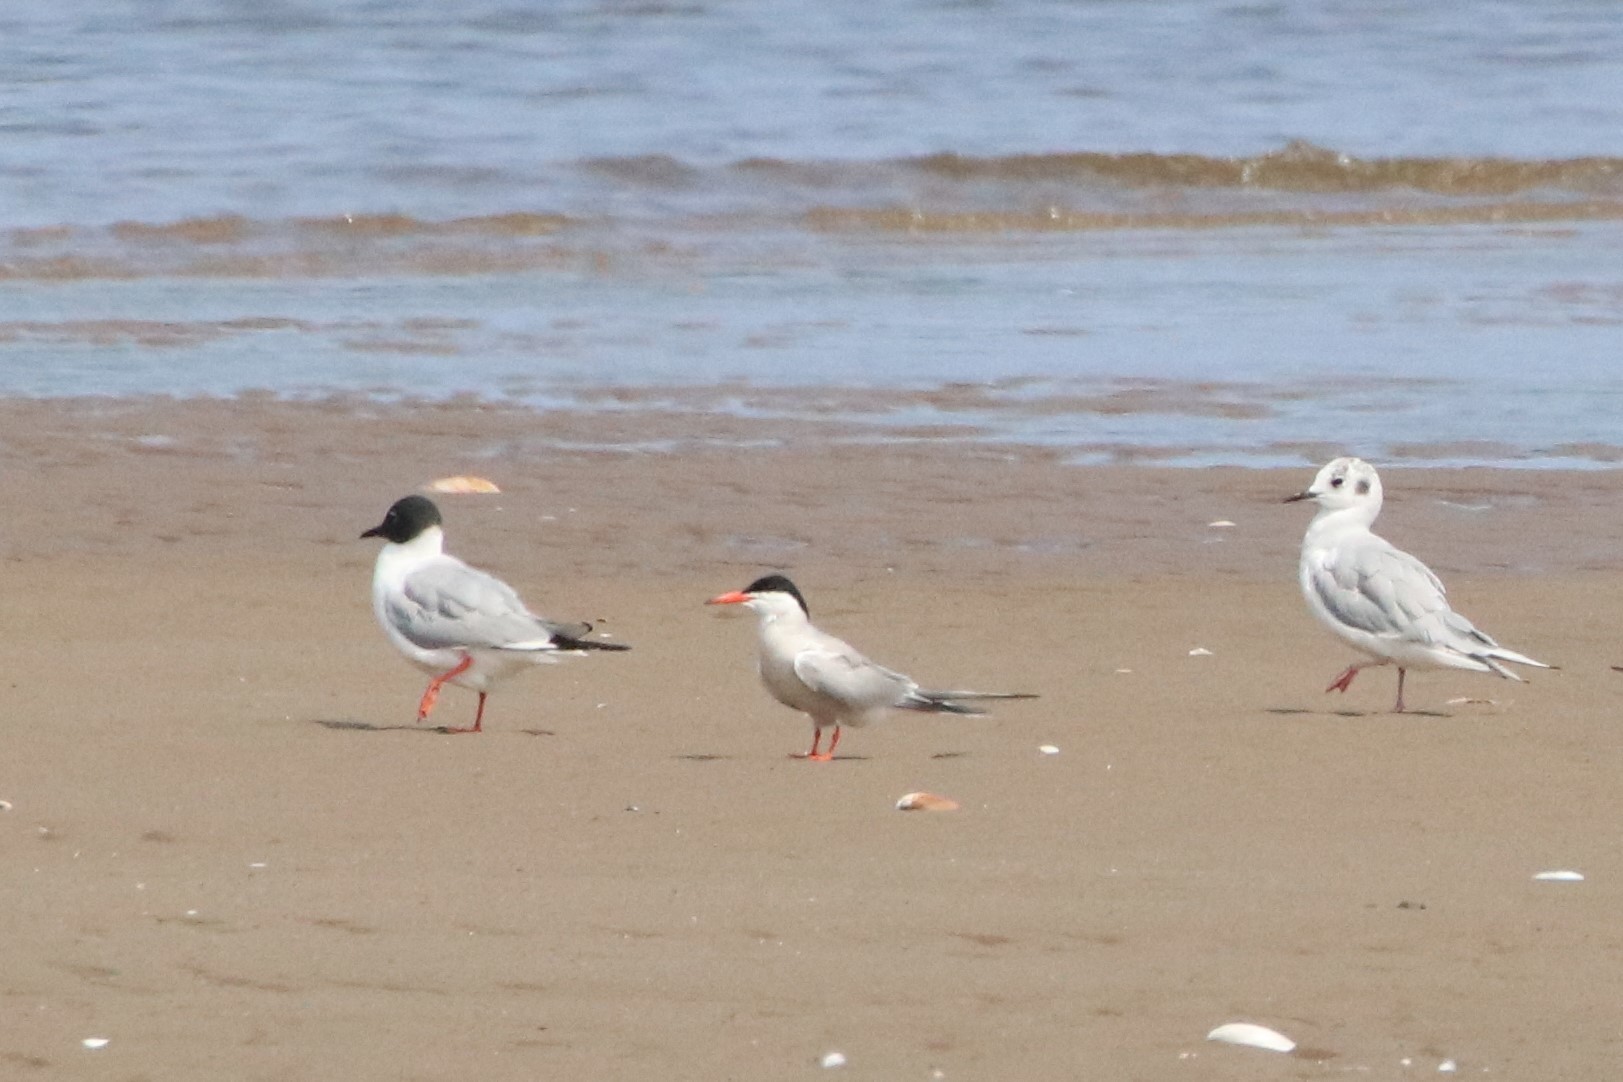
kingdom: Animalia
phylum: Chordata
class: Aves
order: Charadriiformes
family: Laridae
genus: Chroicocephalus
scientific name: Chroicocephalus philadelphia
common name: Bonaparte's gull
